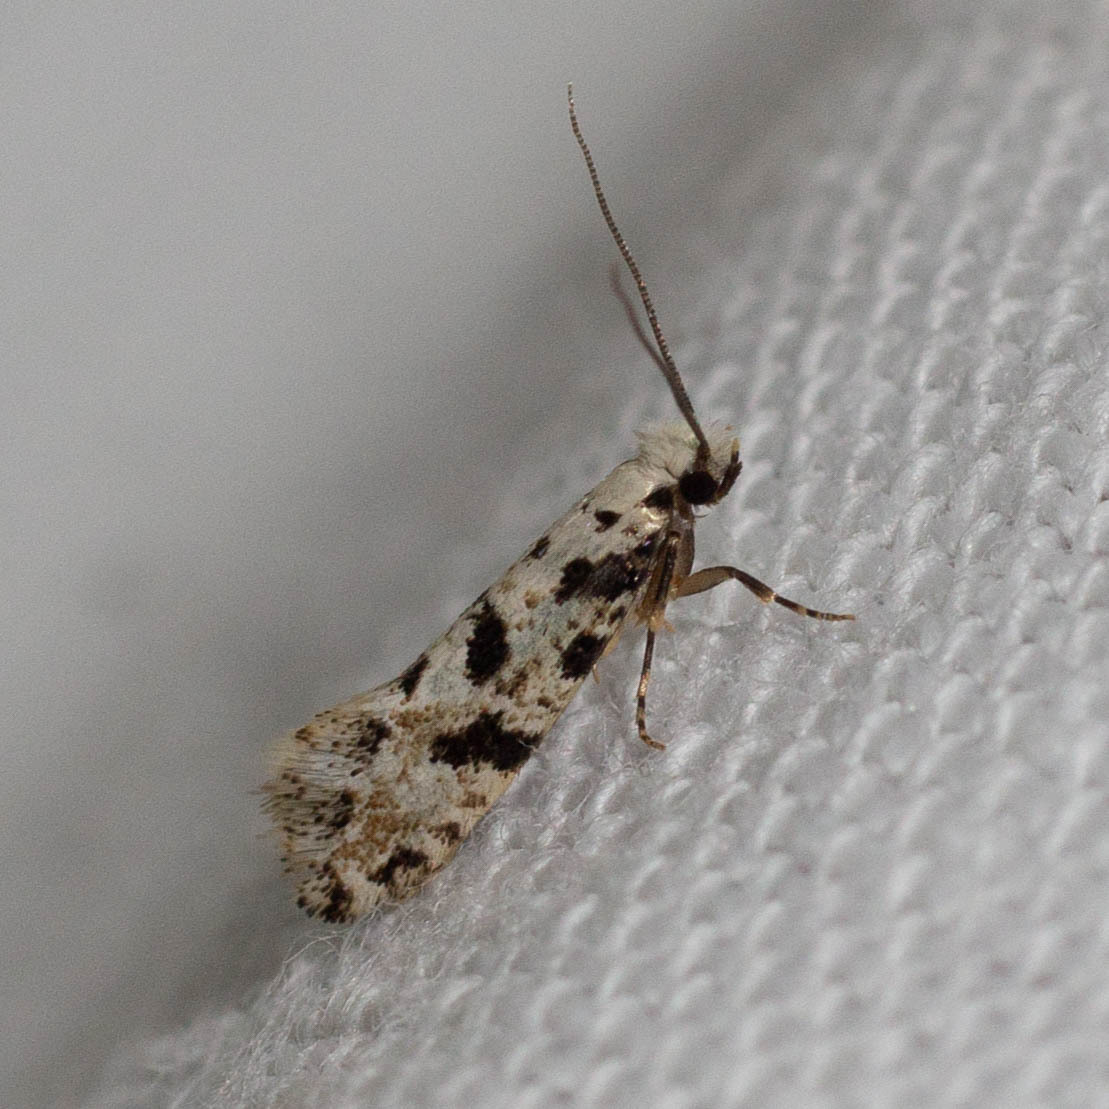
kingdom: Animalia
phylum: Arthropoda
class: Insecta
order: Lepidoptera
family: Tineidae
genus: Nemapogon
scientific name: Nemapogon nevadella
